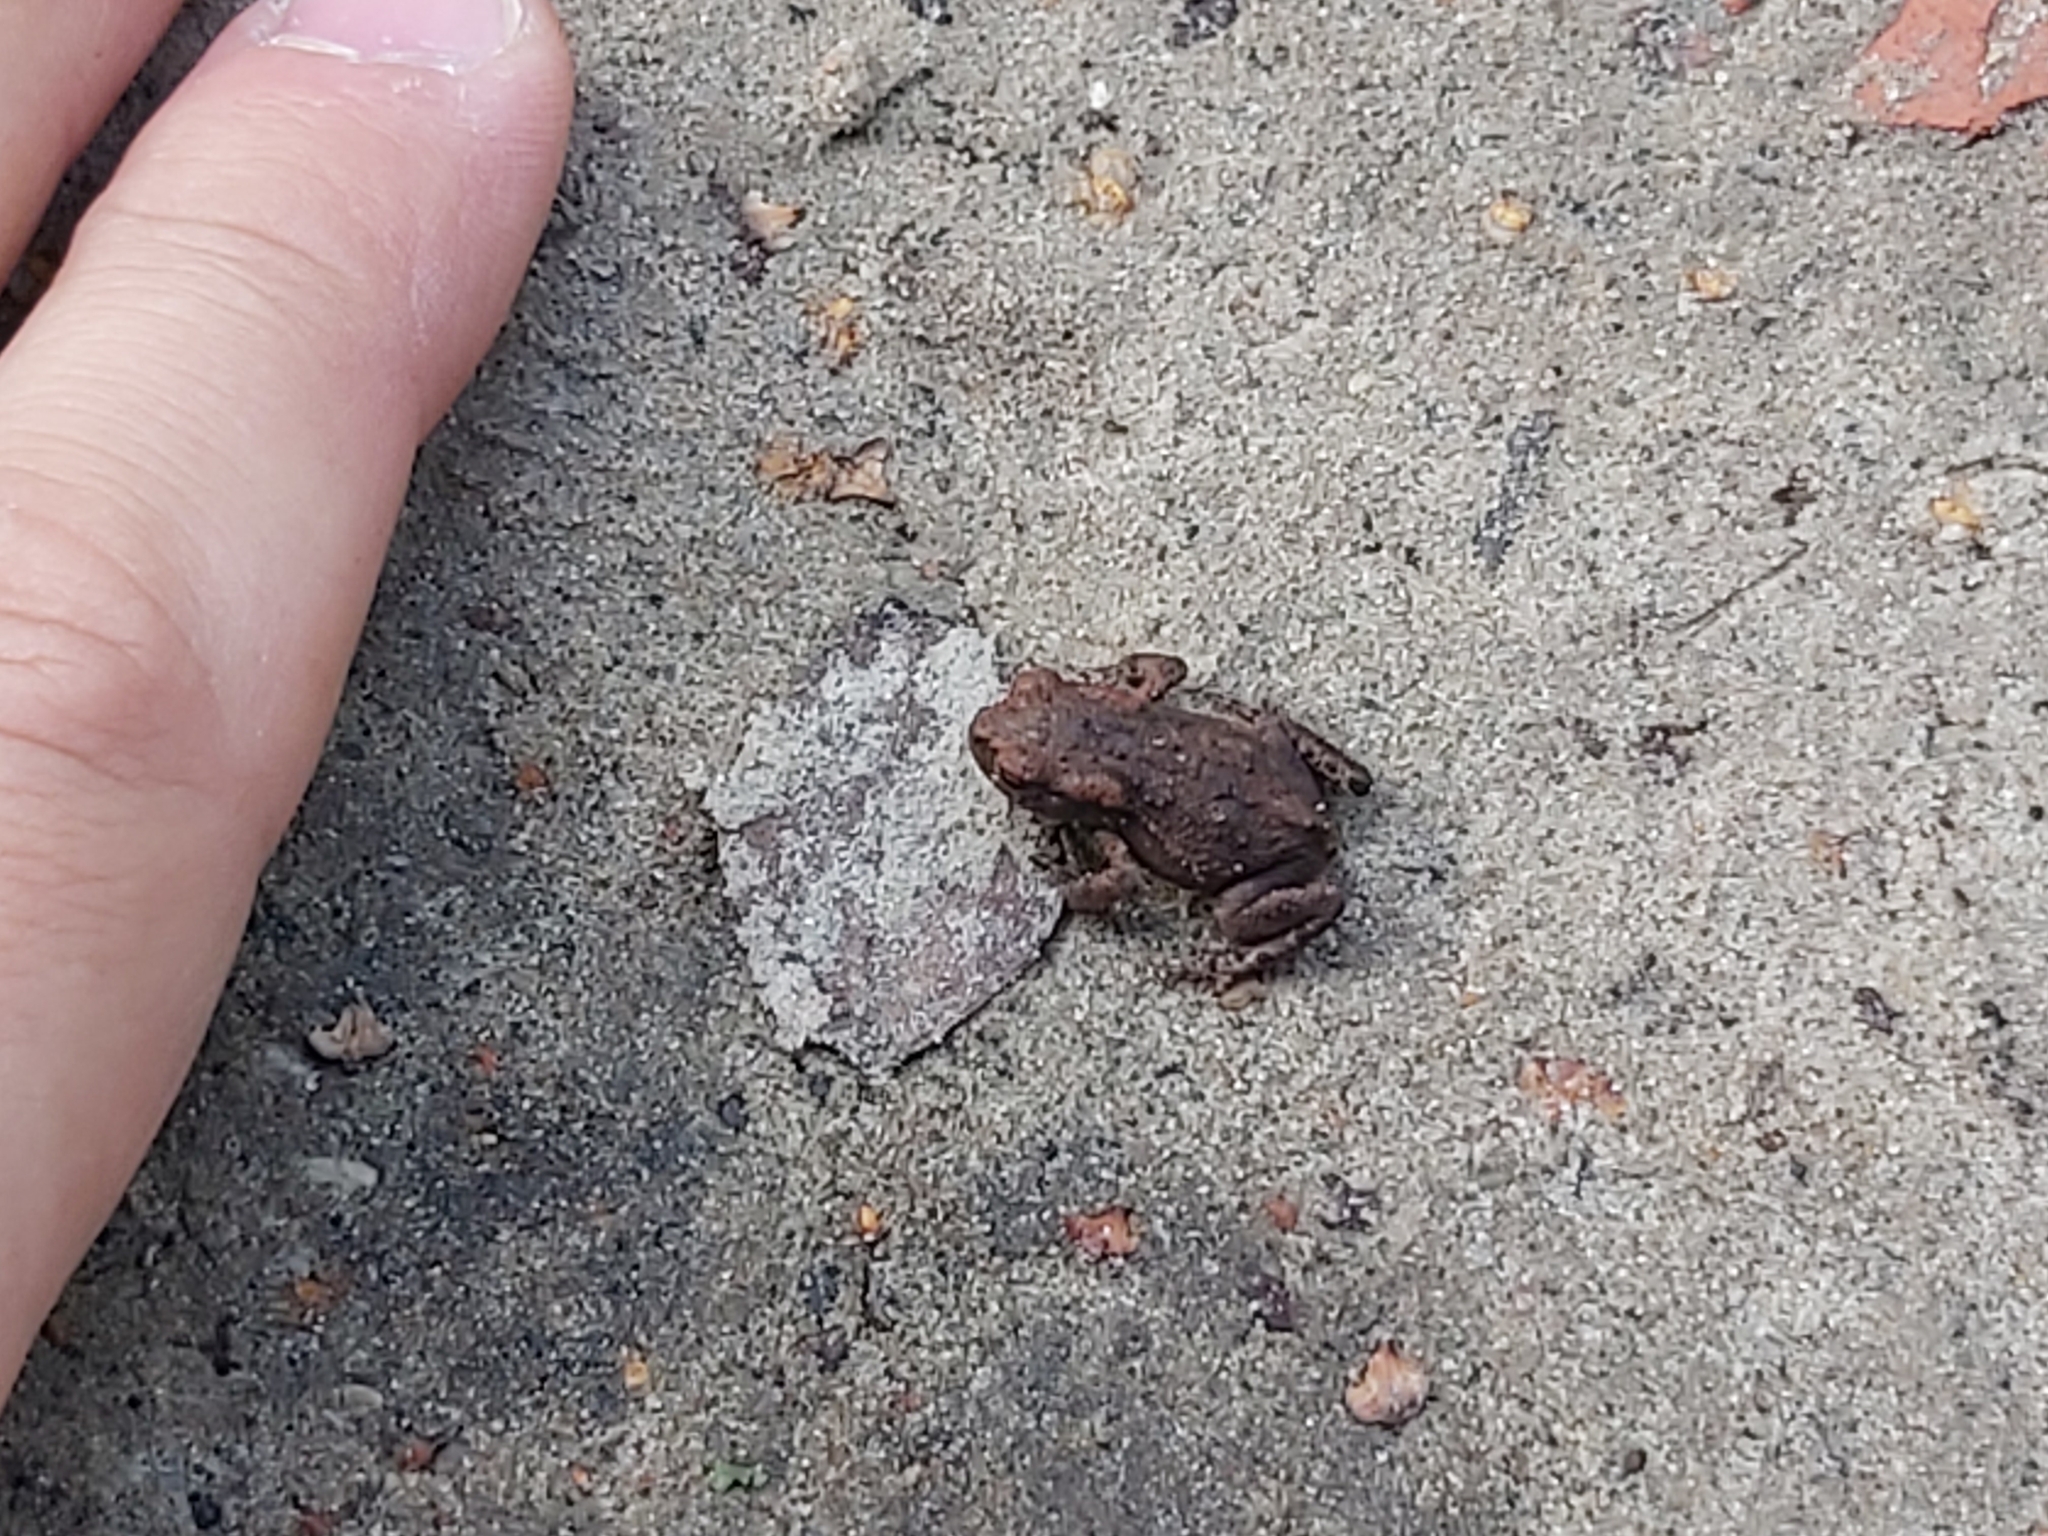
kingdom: Animalia
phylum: Chordata
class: Amphibia
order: Anura
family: Bufonidae
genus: Bufo
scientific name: Bufo bufo
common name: Common toad
